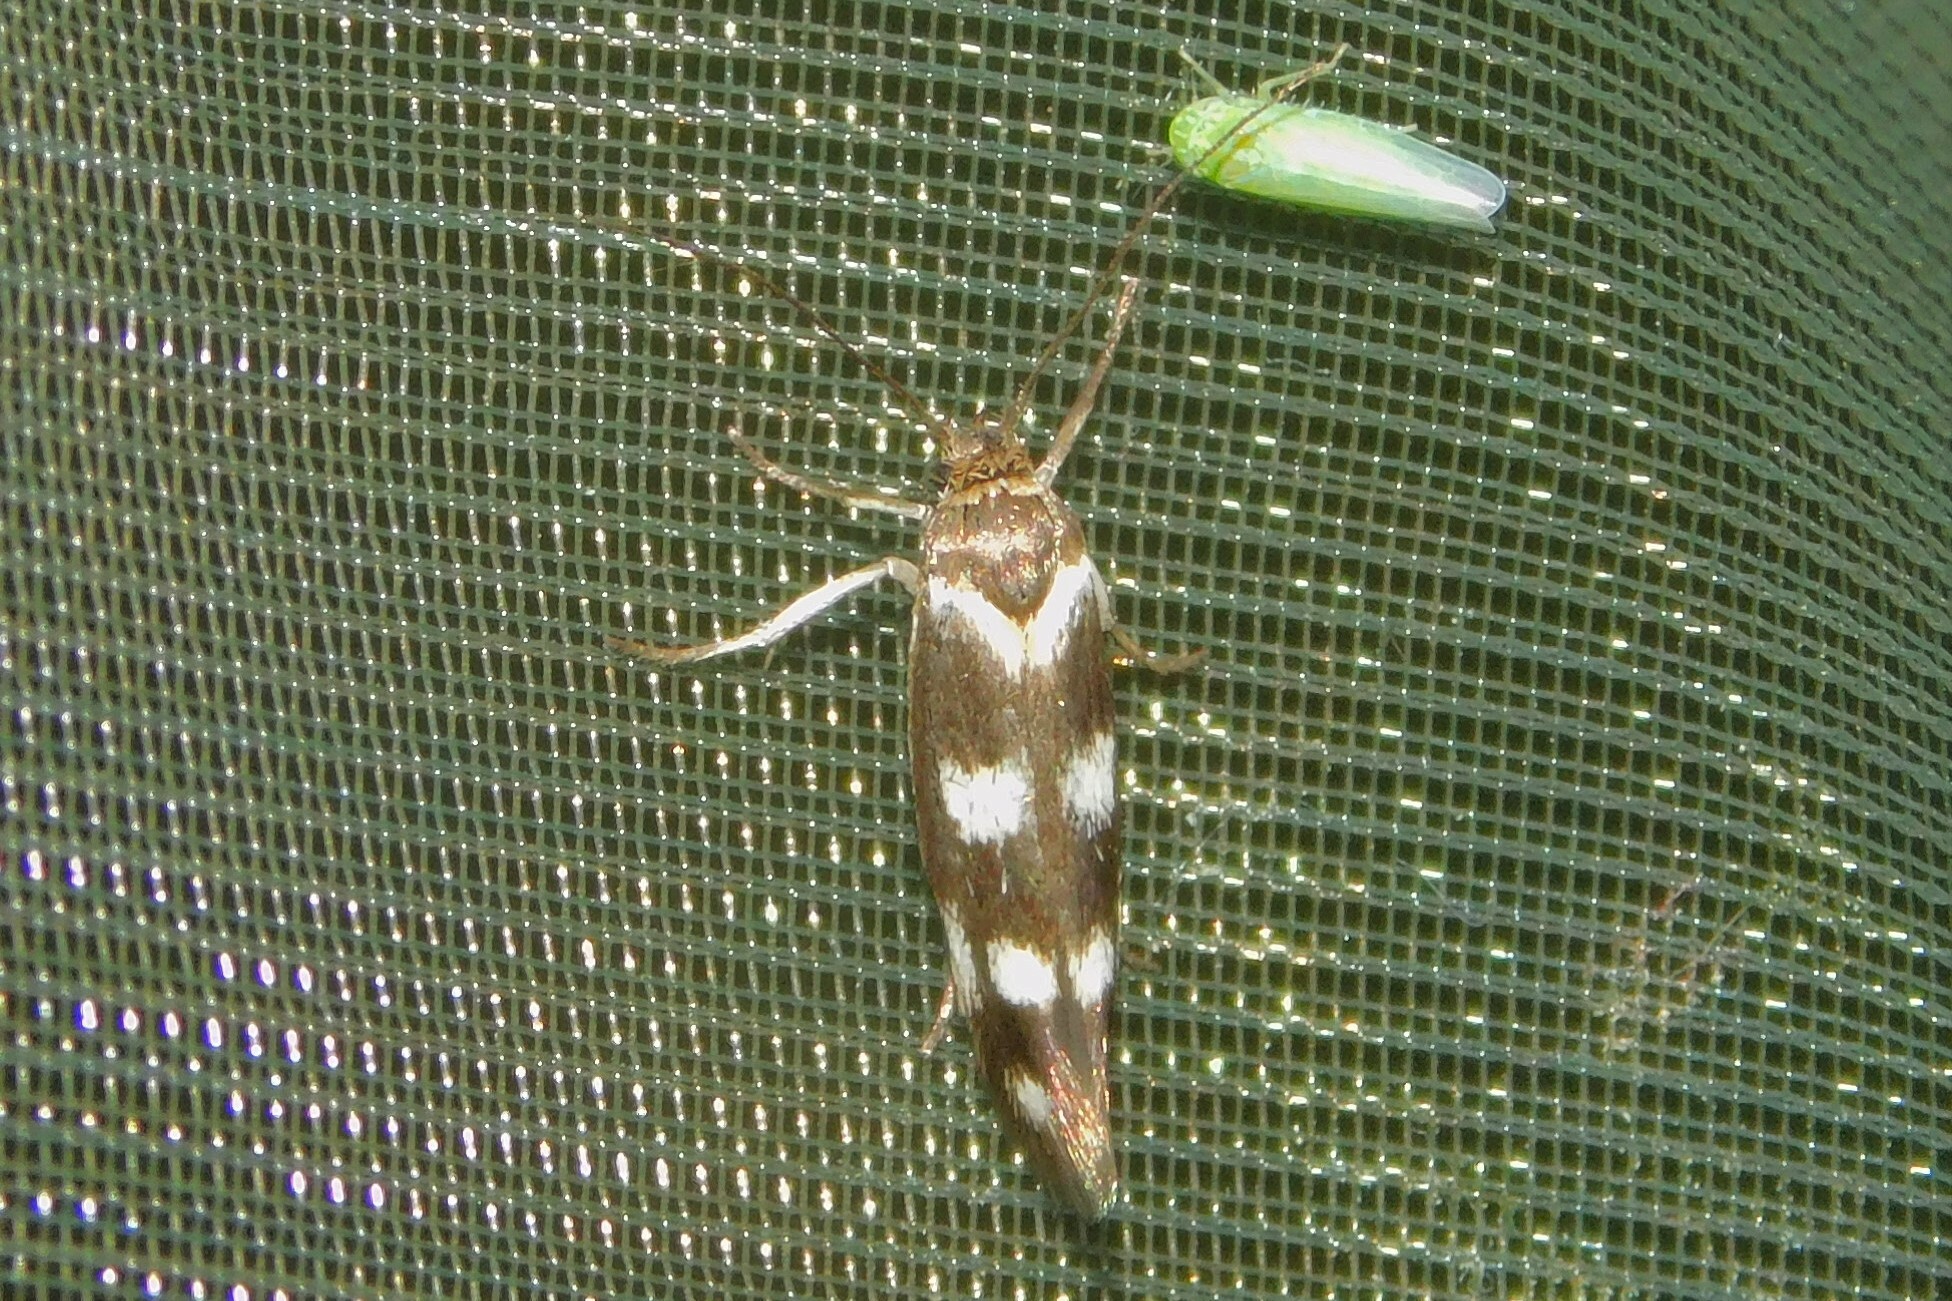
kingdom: Animalia
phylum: Arthropoda
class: Insecta
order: Lepidoptera
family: Scythrididae
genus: Scythris
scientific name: Scythris scopolella
